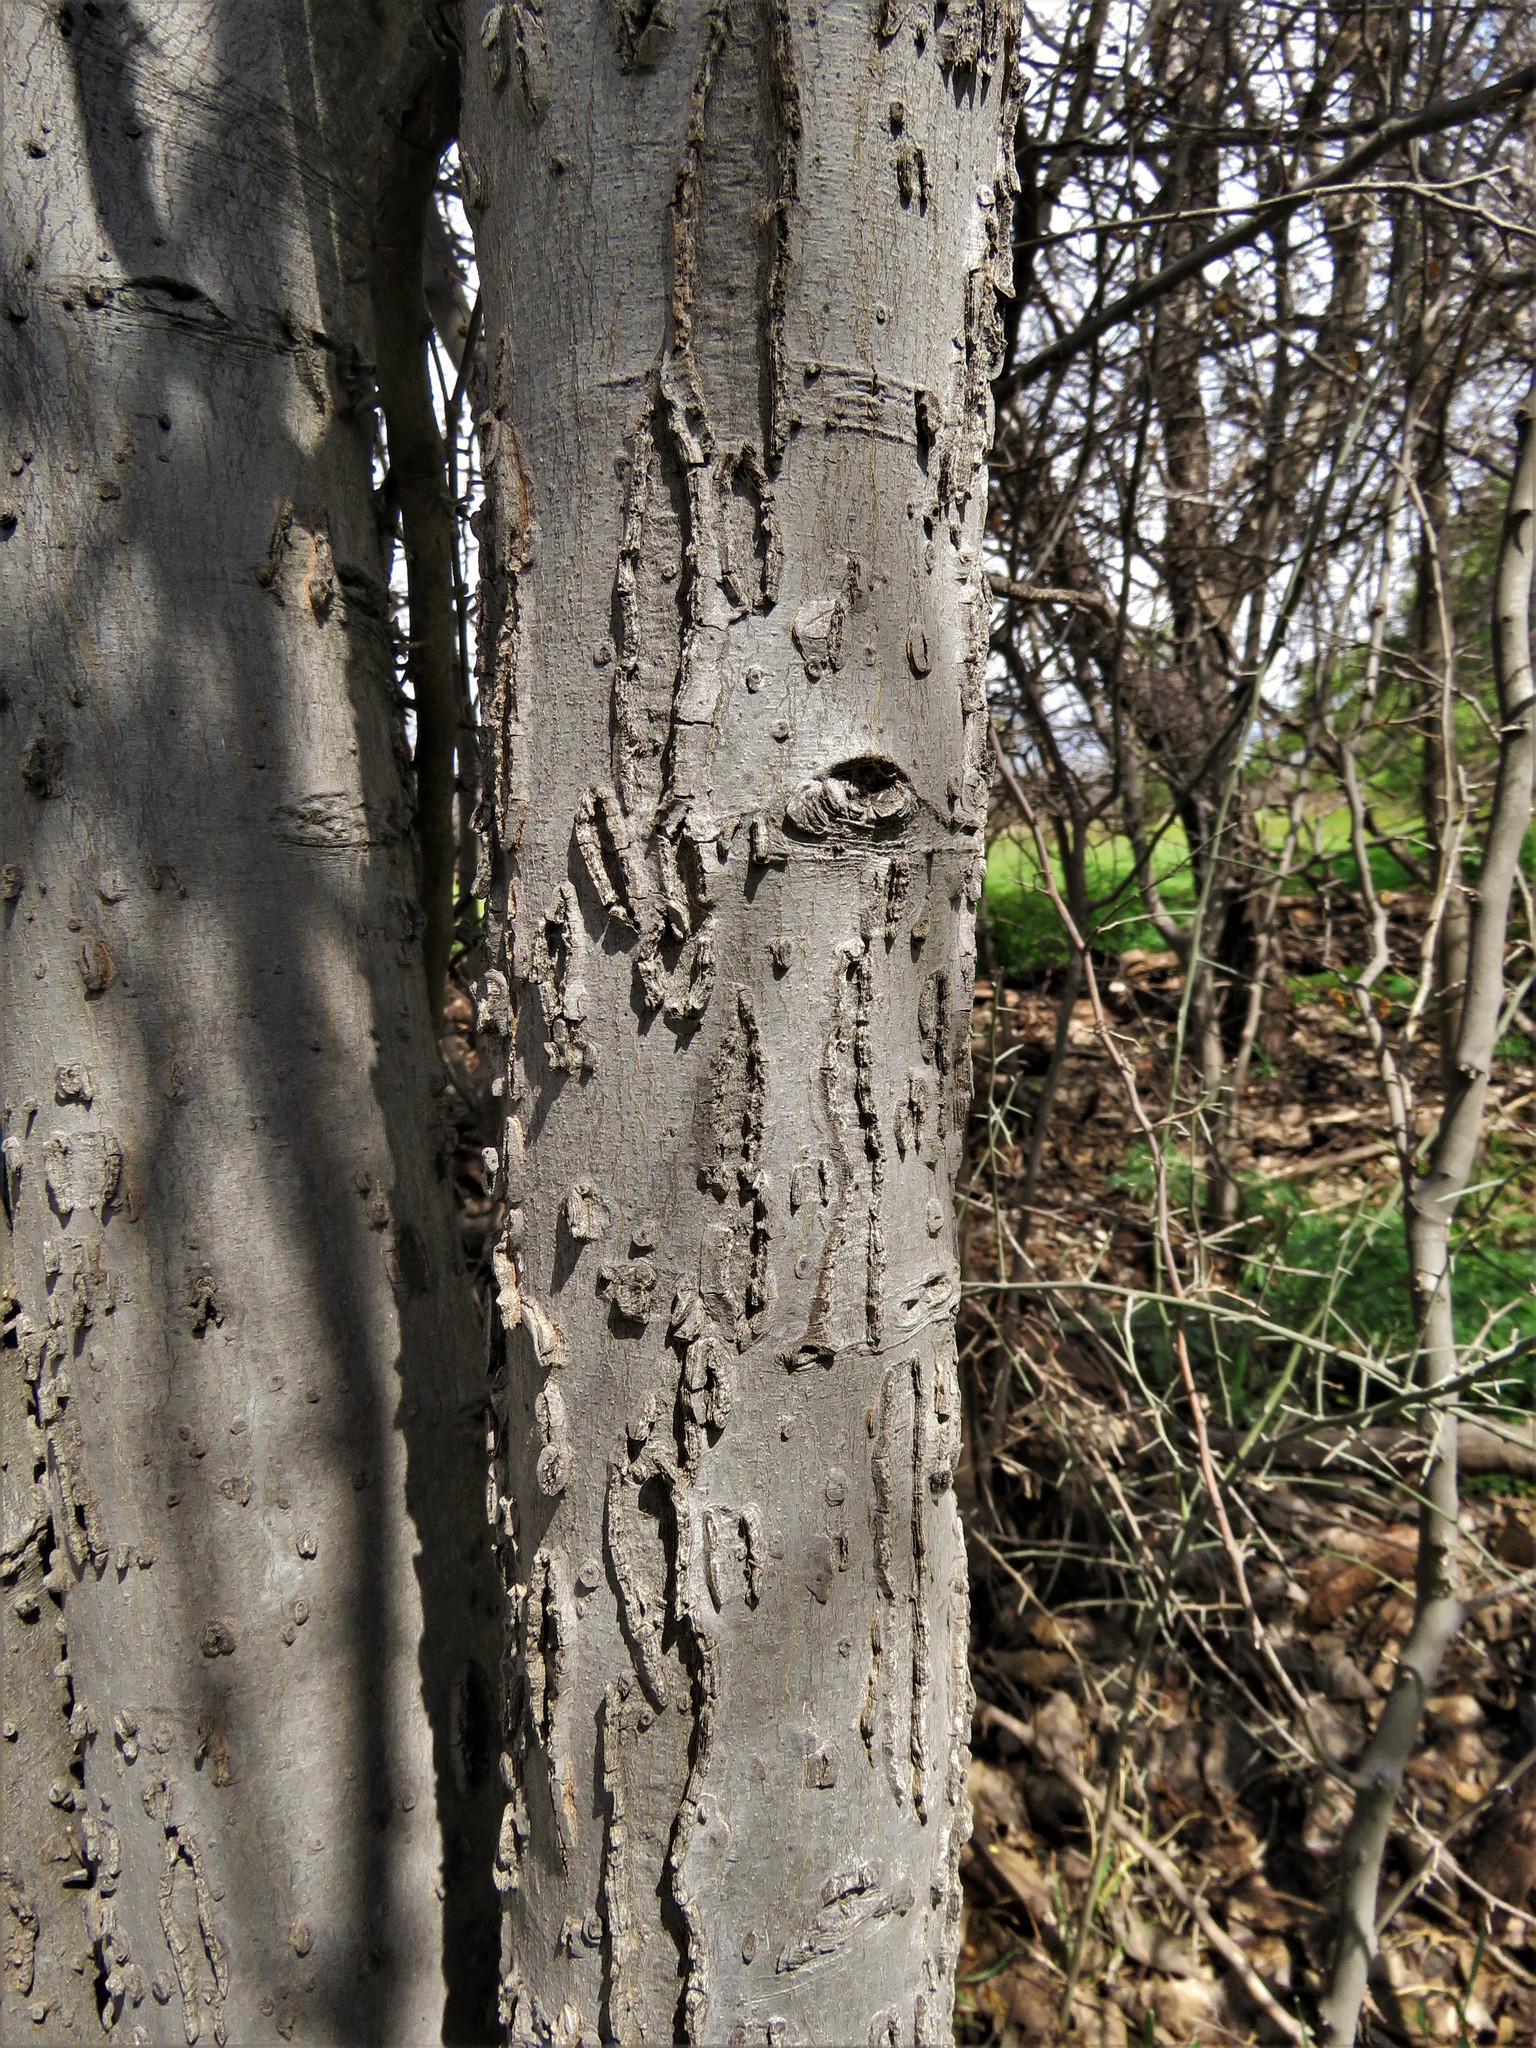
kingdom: Plantae
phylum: Tracheophyta
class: Magnoliopsida
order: Rosales
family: Cannabaceae
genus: Celtis
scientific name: Celtis reticulata
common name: Netleaf hackberry
